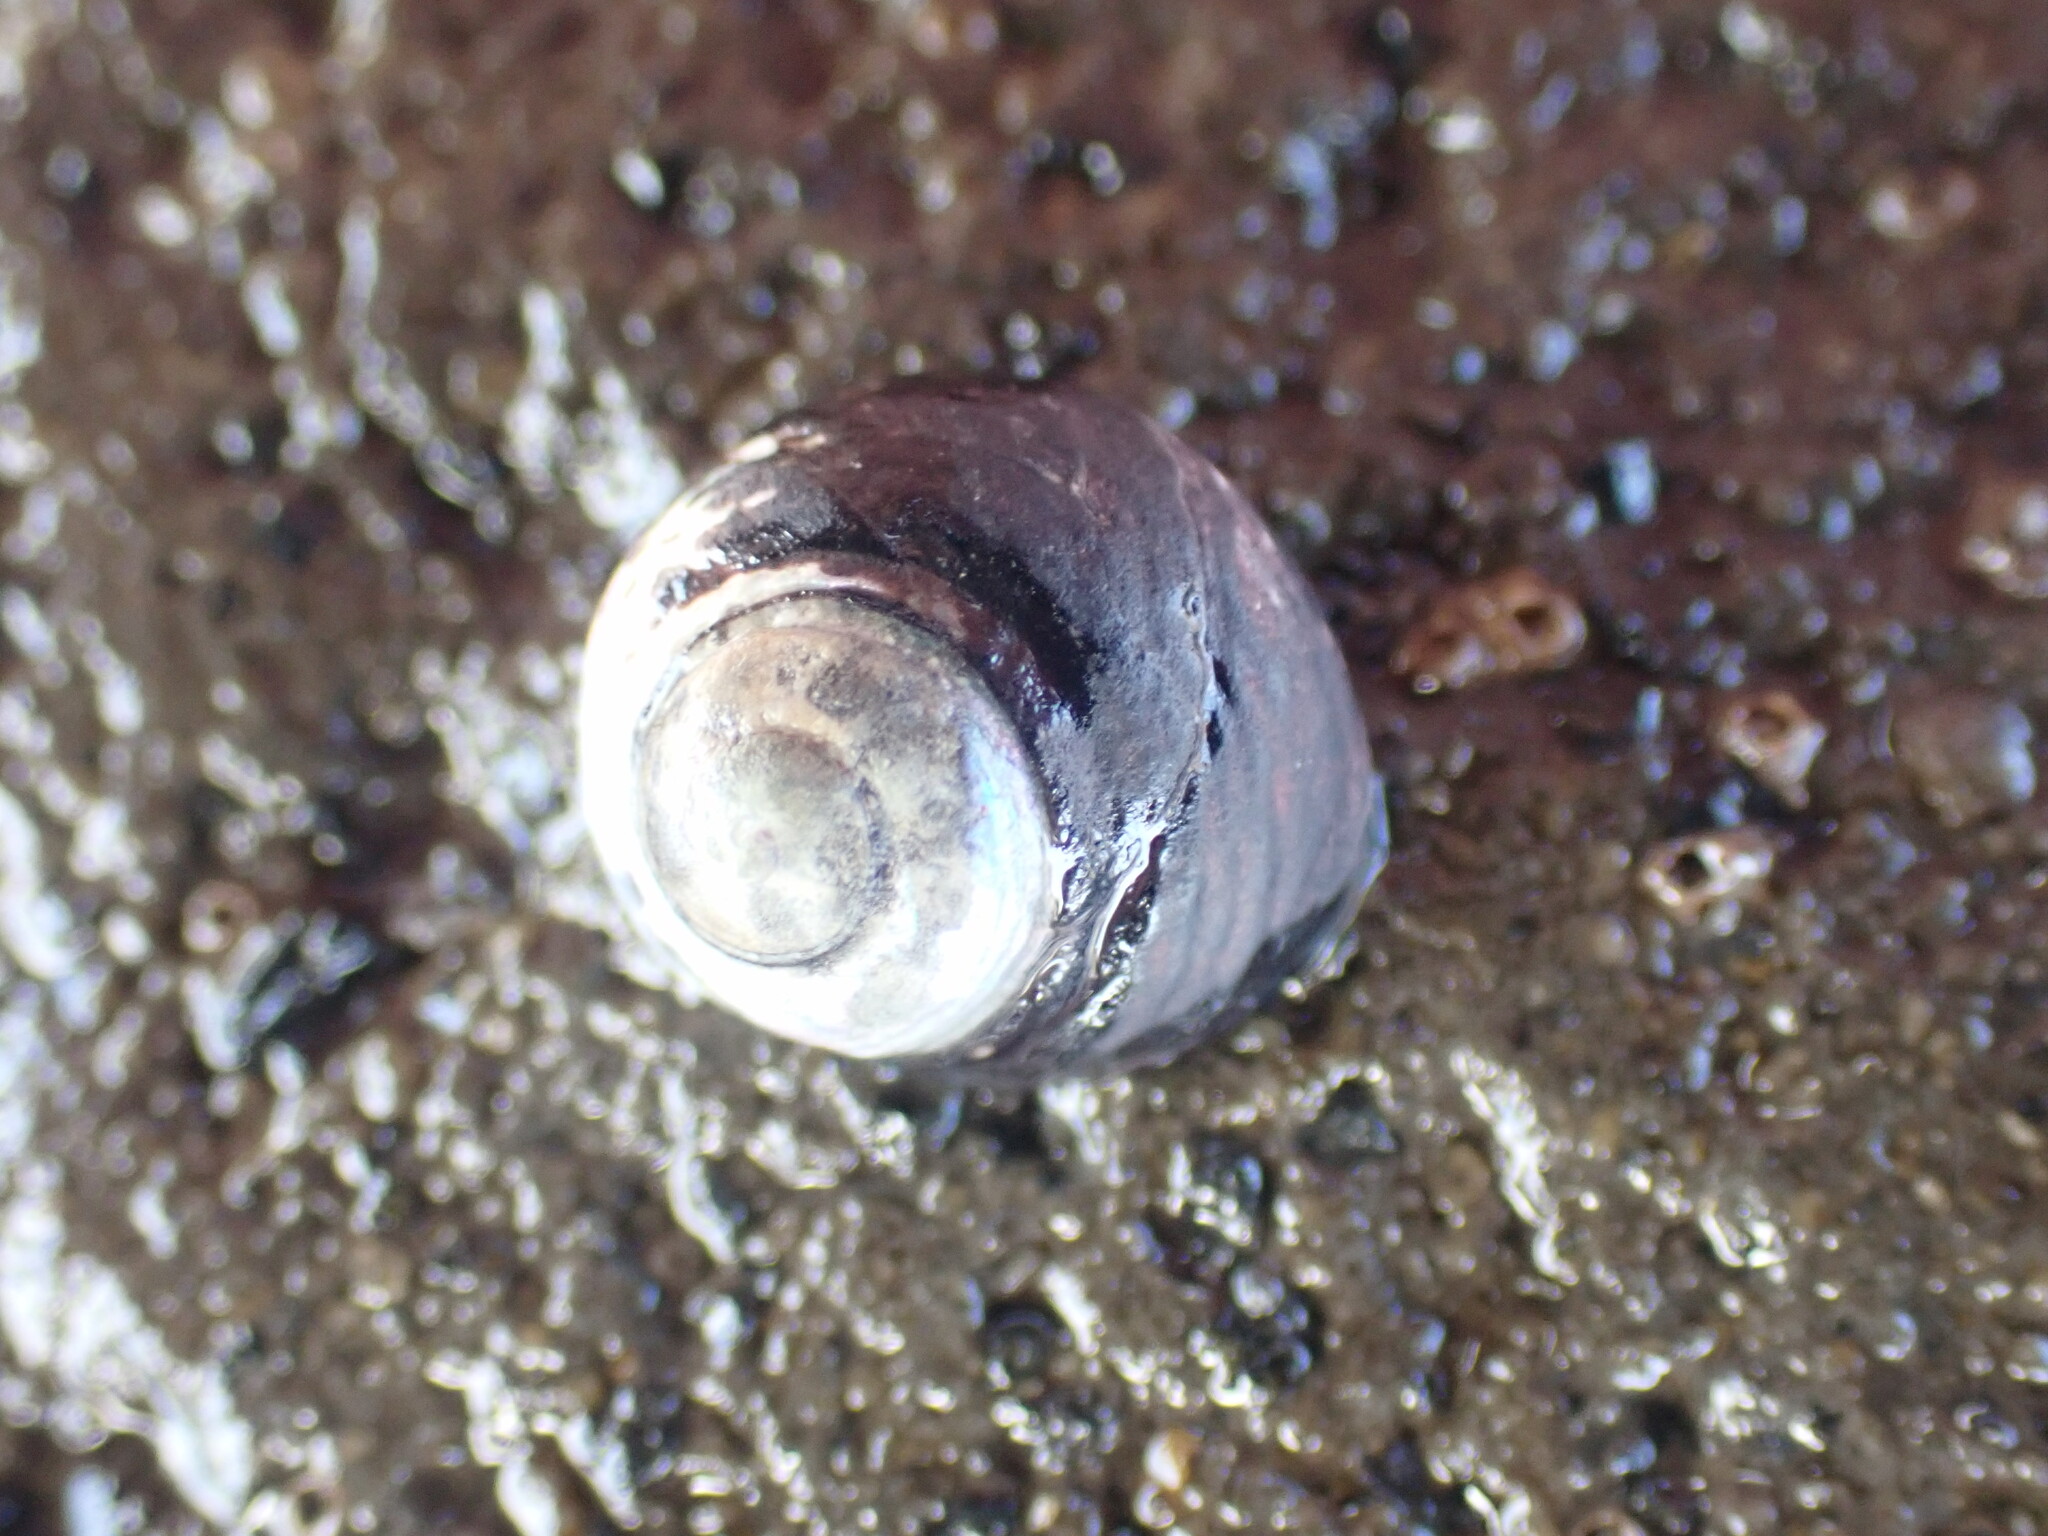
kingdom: Animalia
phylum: Mollusca
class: Gastropoda
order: Trochida
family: Trochidae
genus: Diloma
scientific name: Diloma aridum
